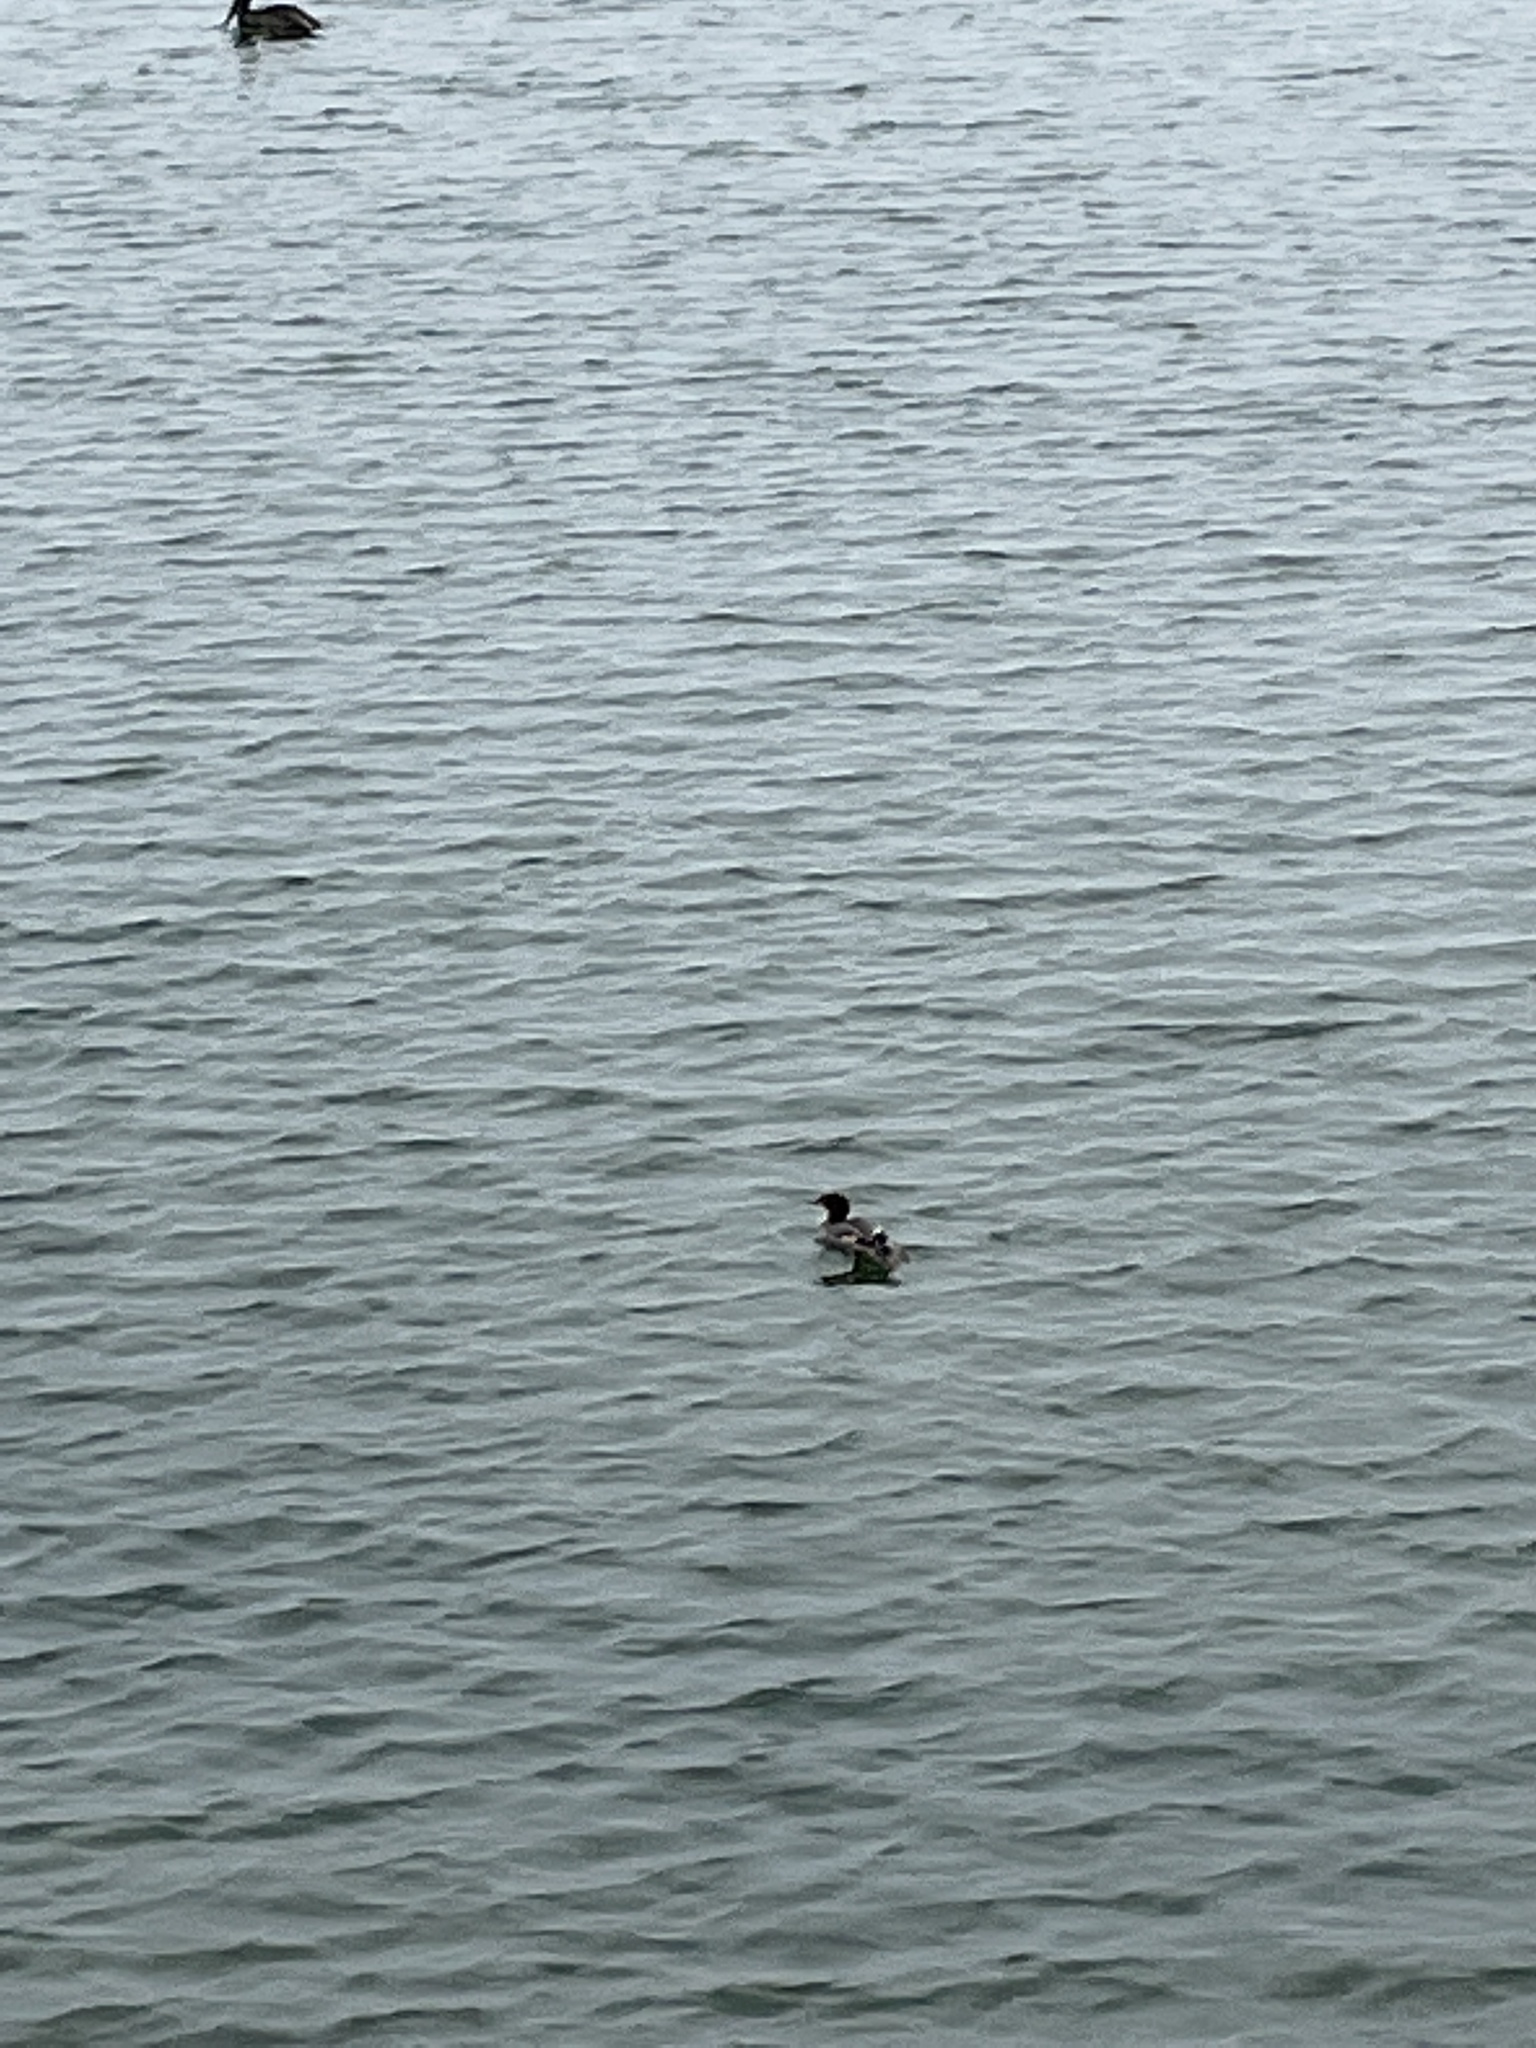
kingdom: Animalia
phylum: Chordata
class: Aves
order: Anseriformes
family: Anatidae
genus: Mergus
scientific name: Mergus merganser
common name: Common merganser
